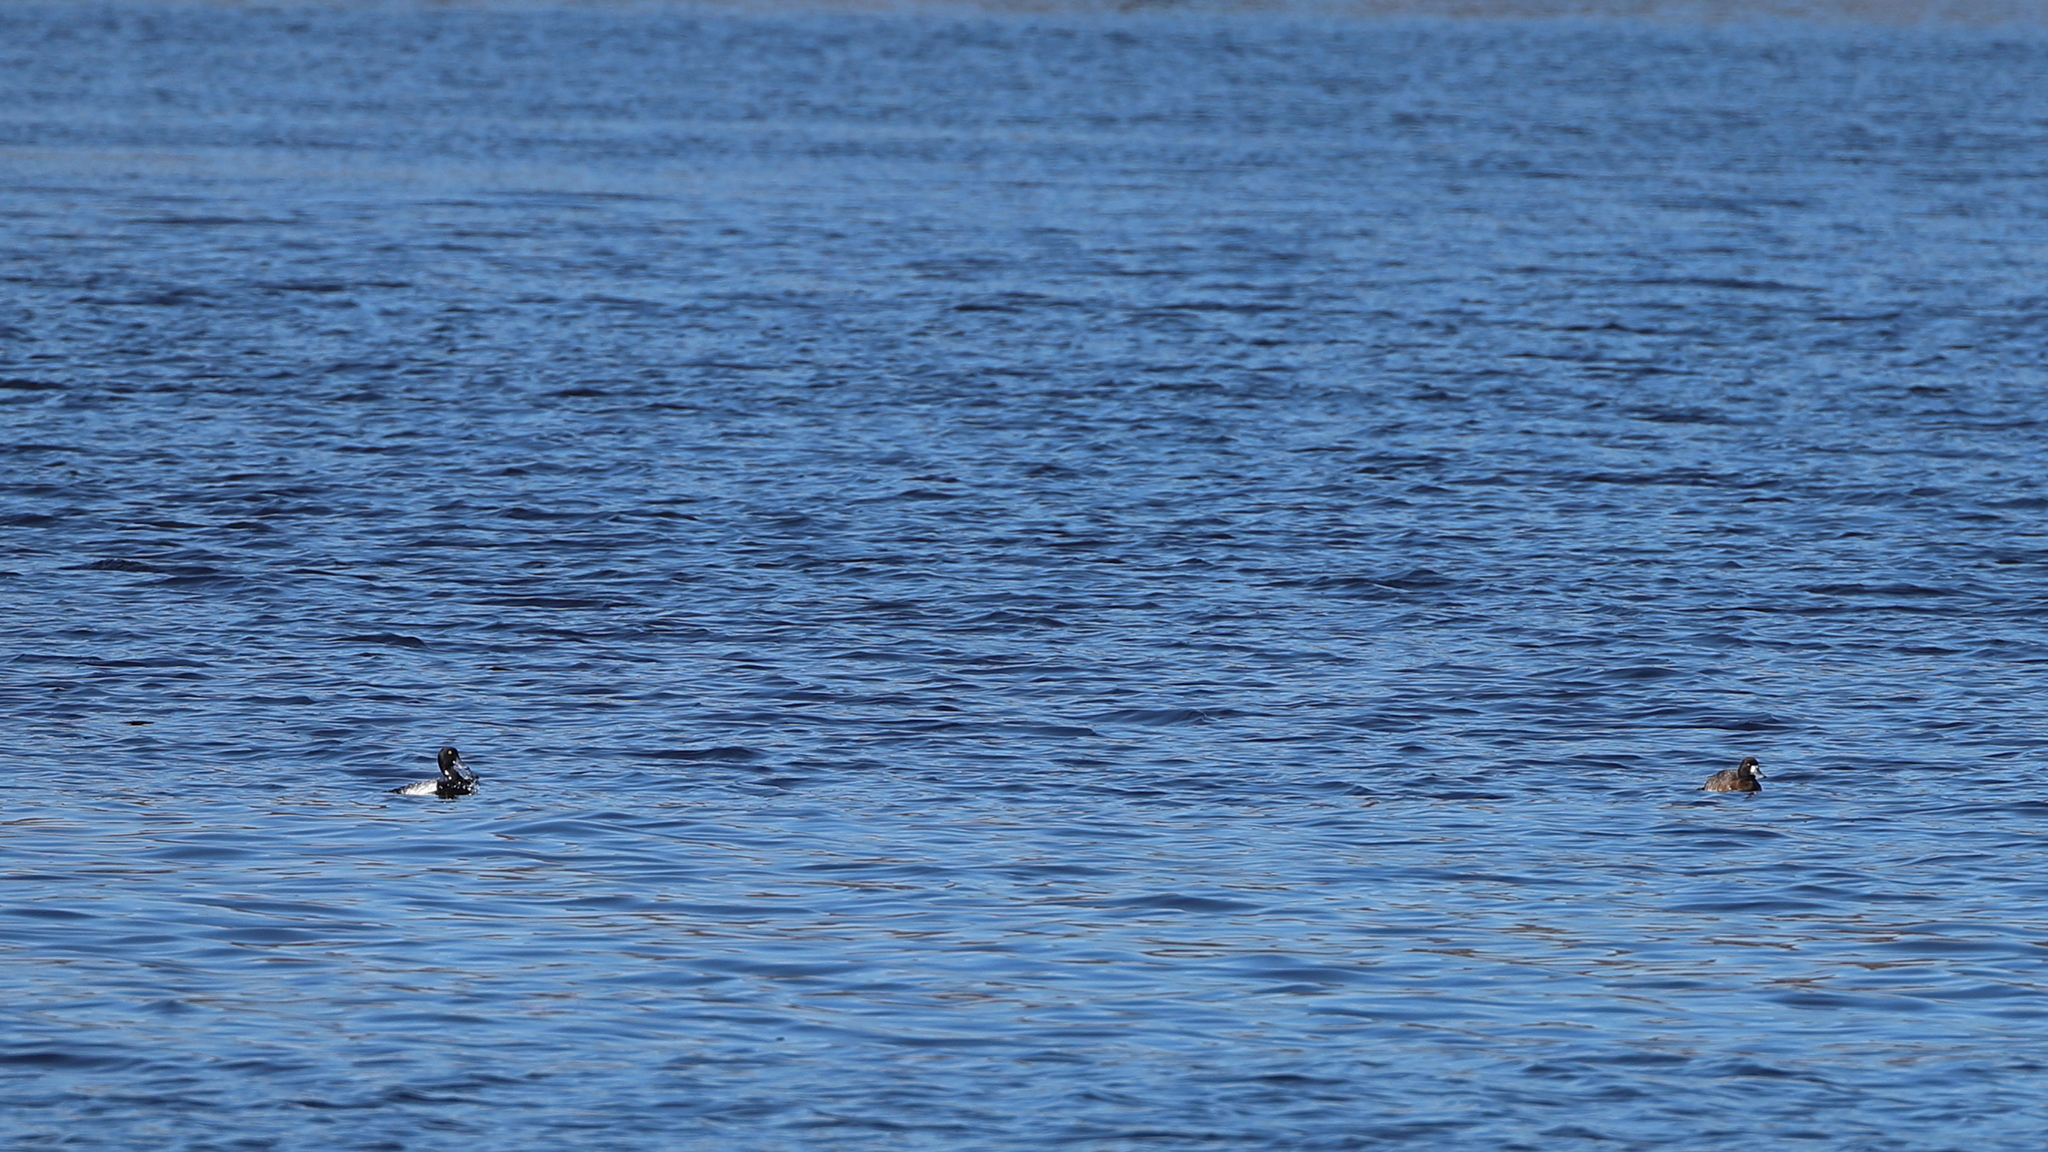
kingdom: Animalia
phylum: Chordata
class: Aves
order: Anseriformes
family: Anatidae
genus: Aythya
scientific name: Aythya marila
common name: Greater scaup
